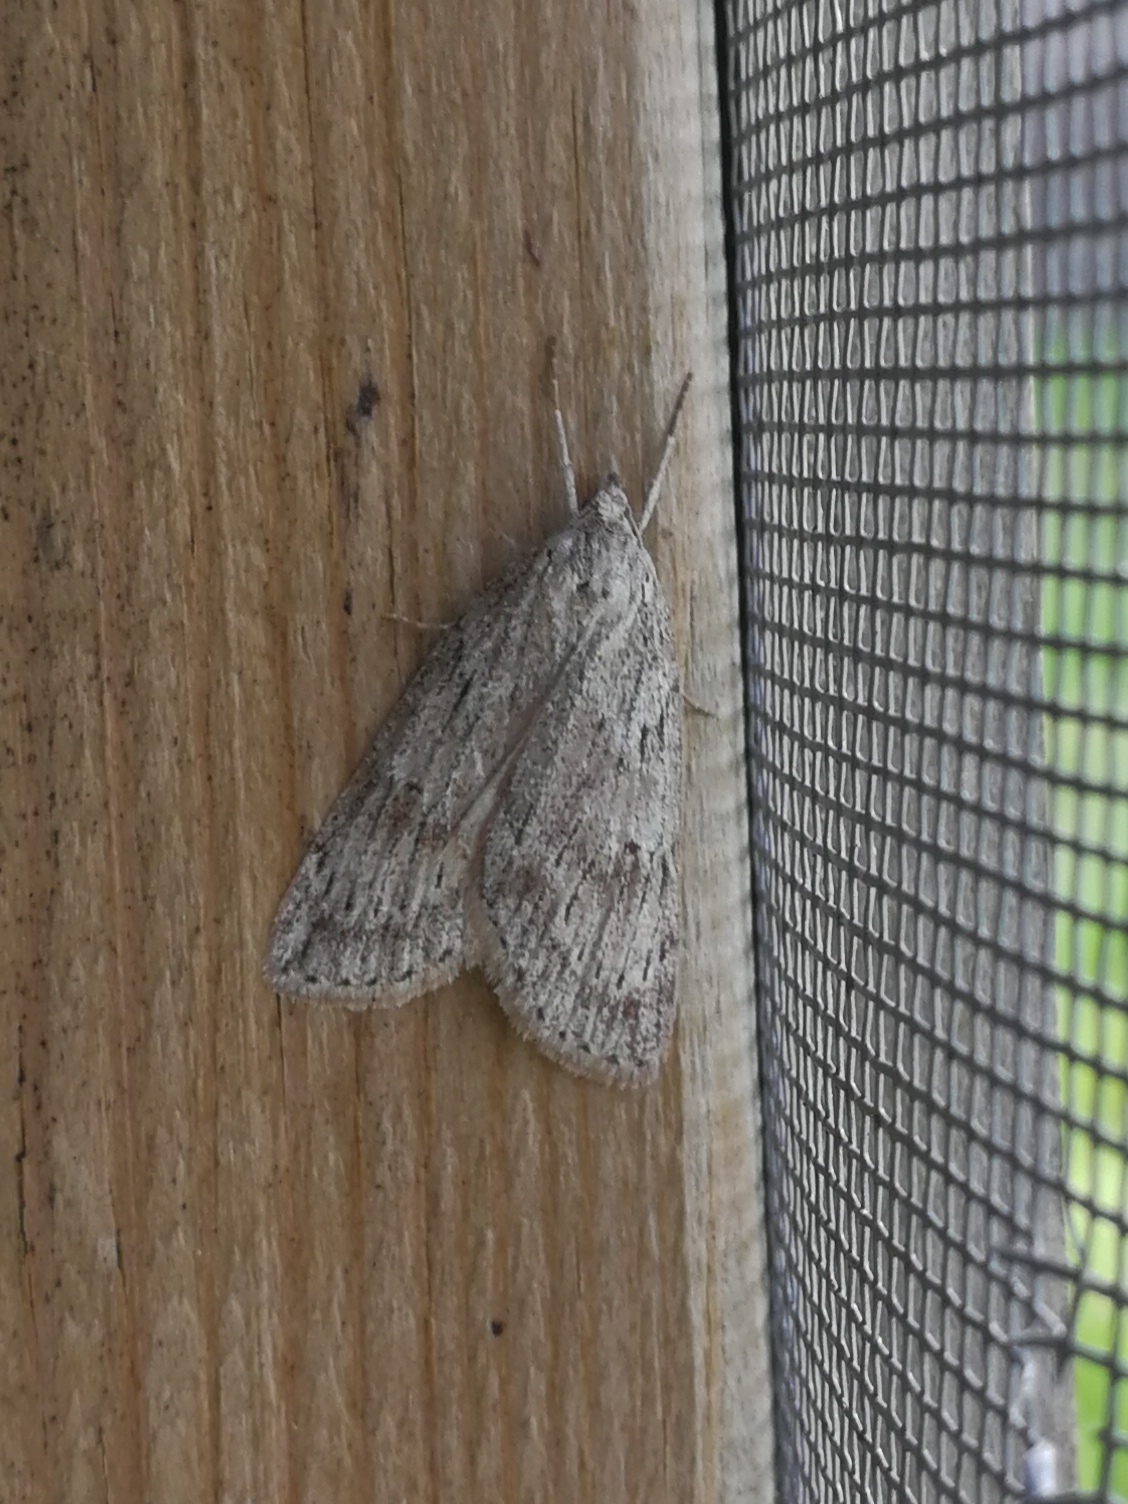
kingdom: Animalia
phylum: Arthropoda
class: Insecta
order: Lepidoptera
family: Geometridae
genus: Pachycnemia
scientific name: Pachycnemia hippocastanaria
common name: Horse chestnut
